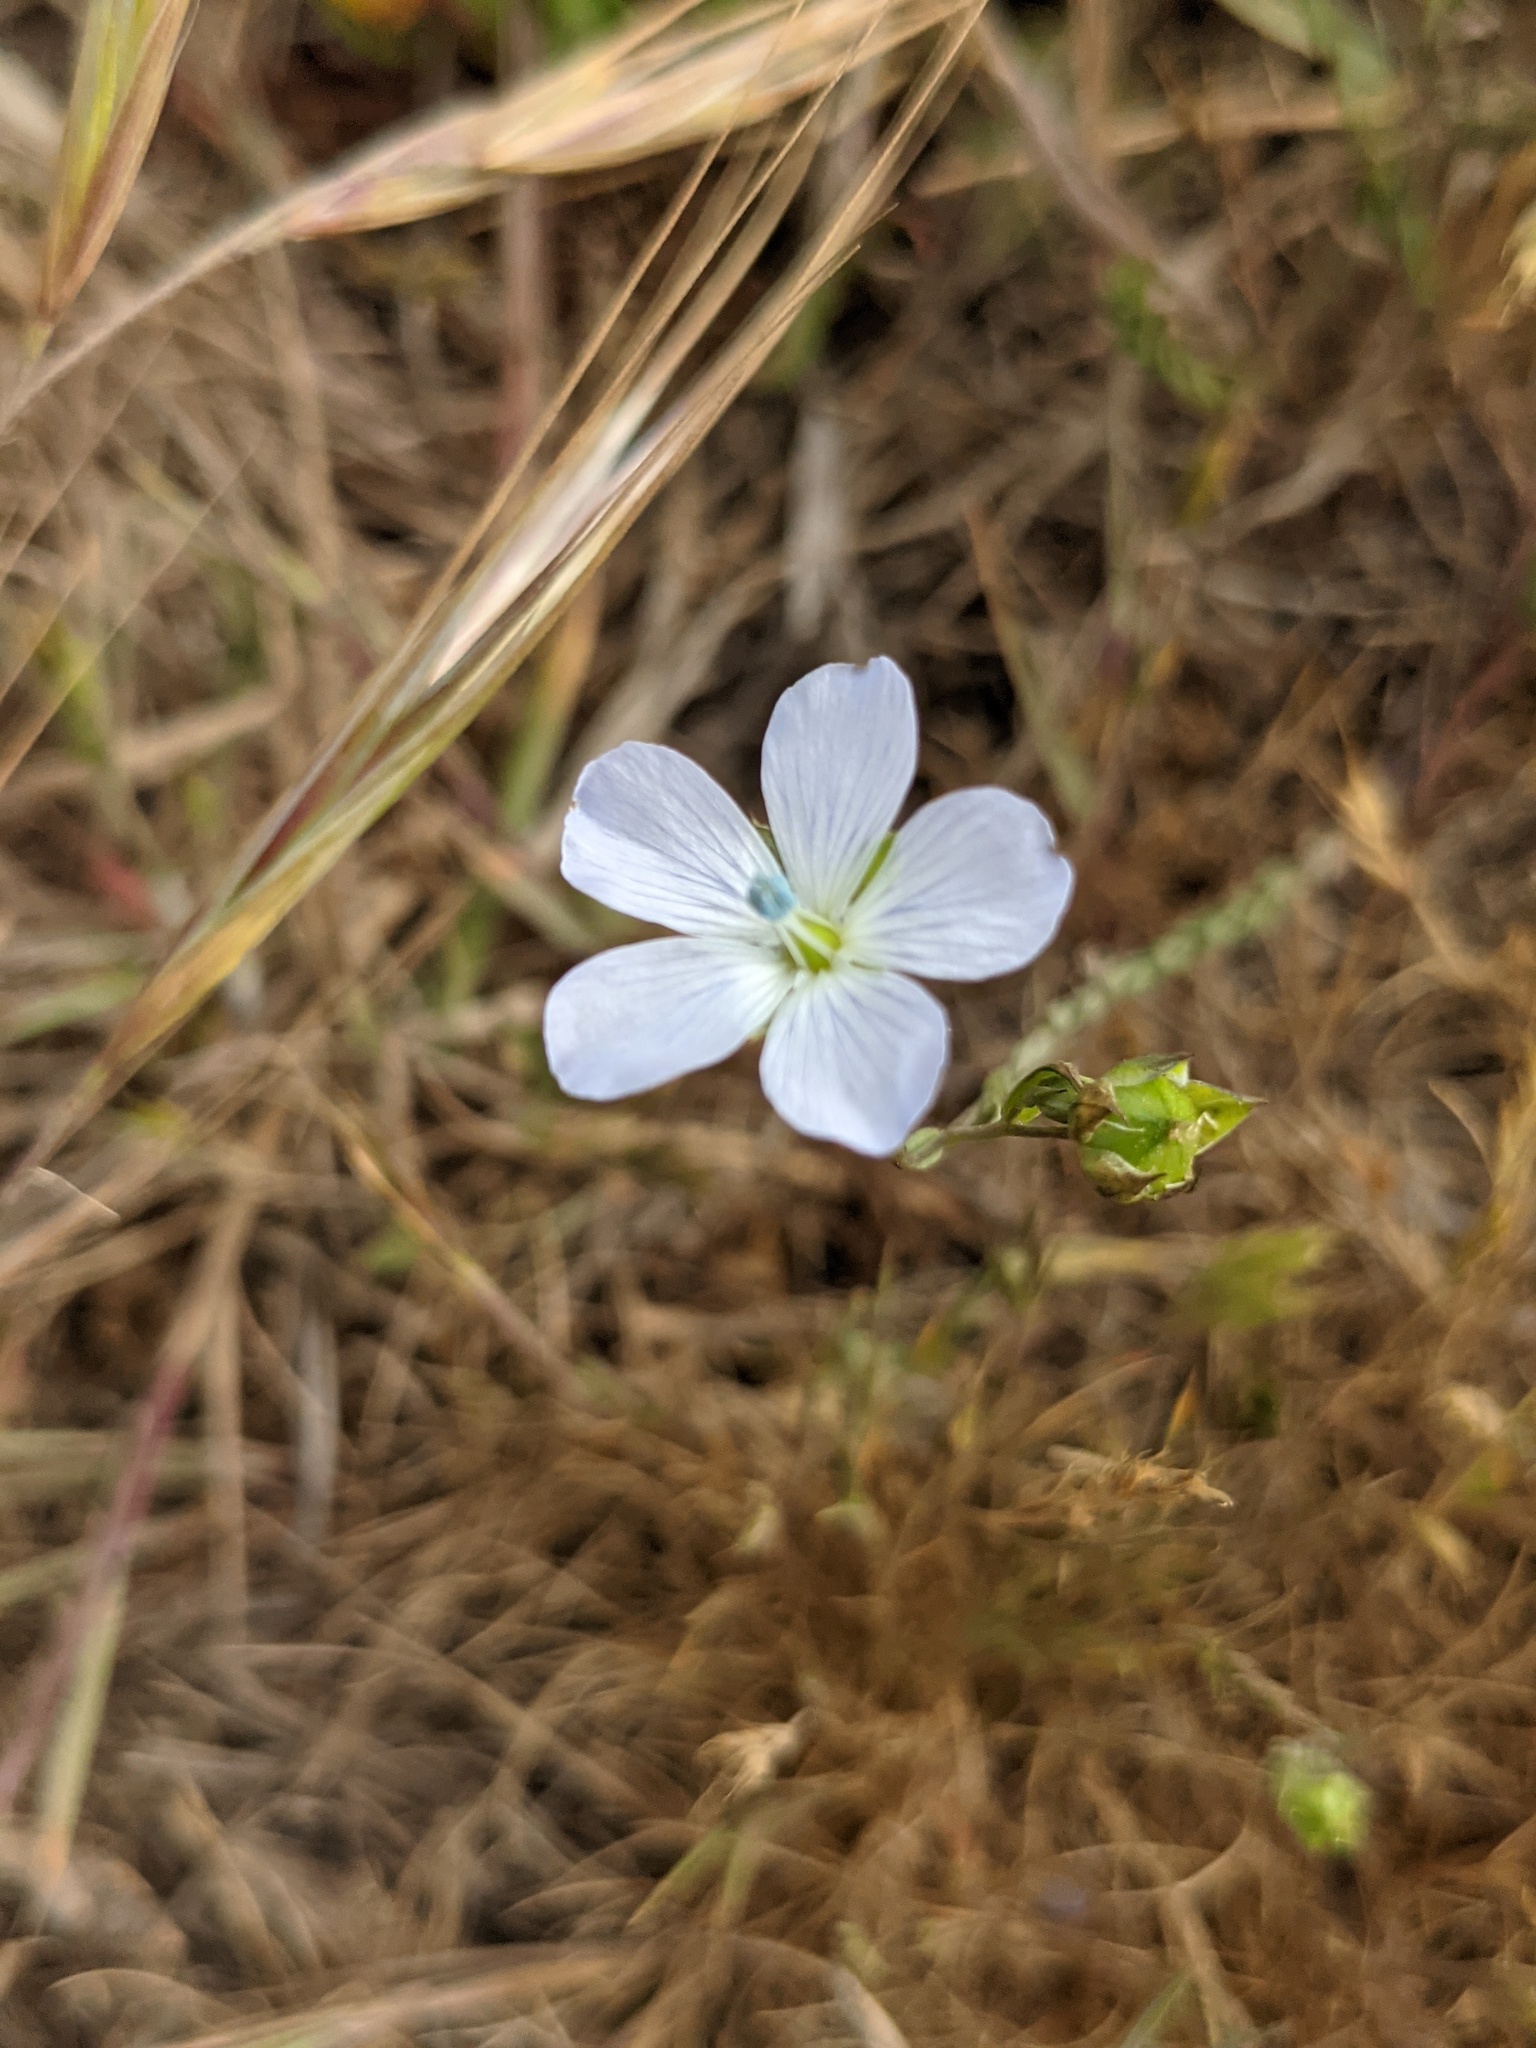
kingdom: Plantae
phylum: Tracheophyta
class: Magnoliopsida
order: Malpighiales
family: Linaceae
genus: Linum
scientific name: Linum bienne
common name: Pale flax
